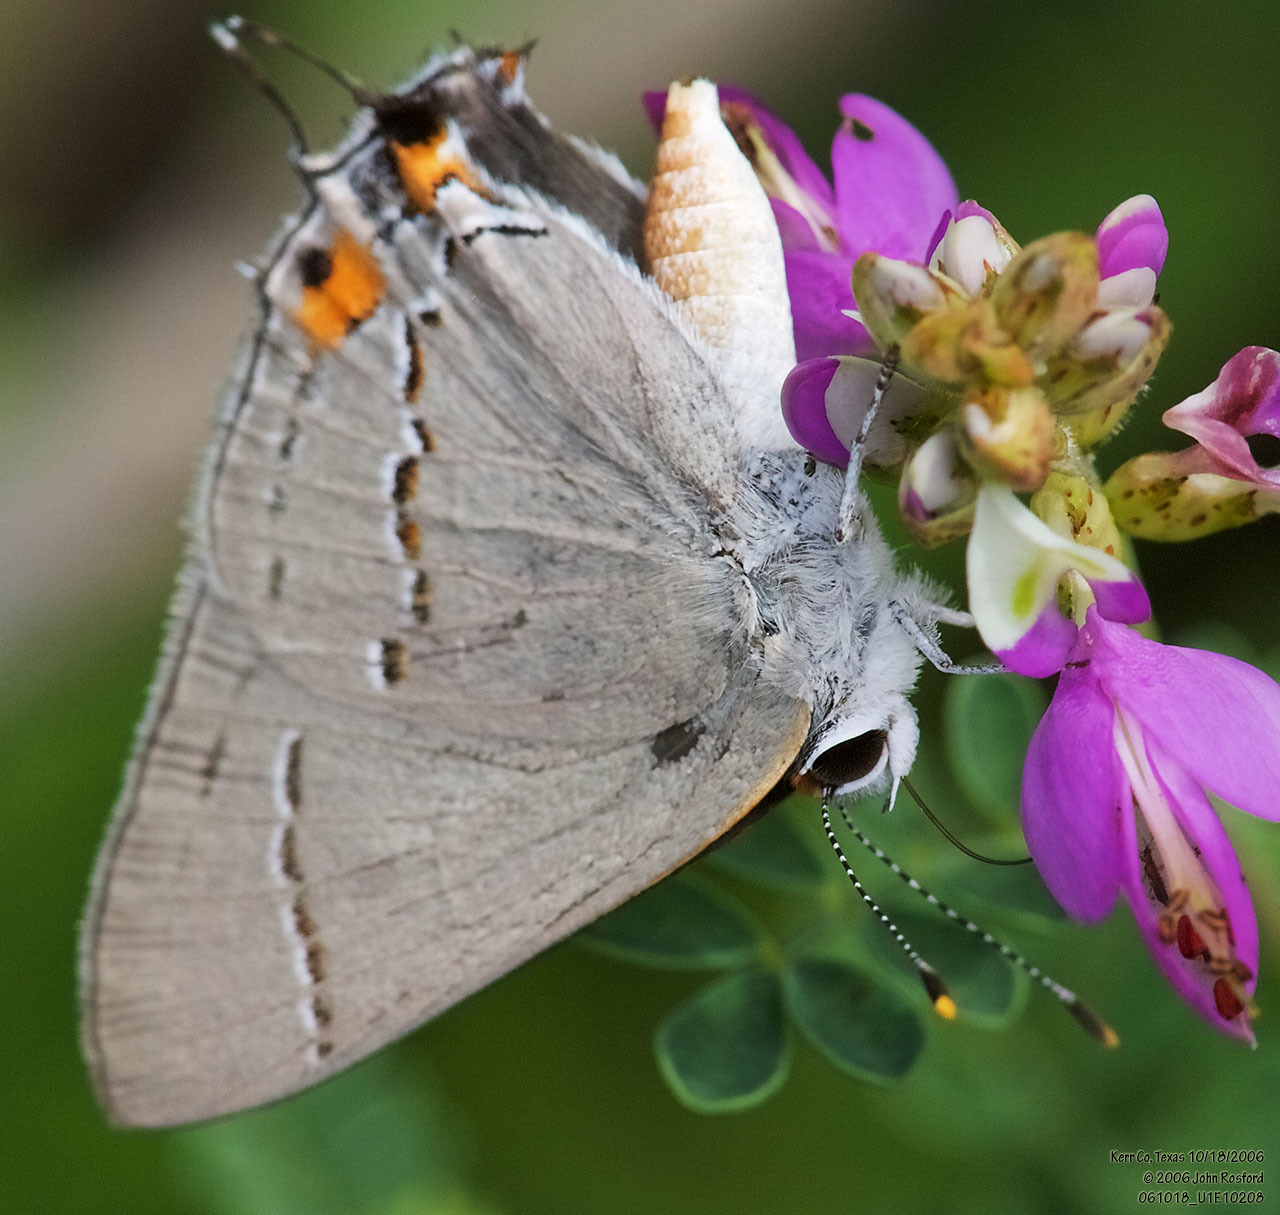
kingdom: Animalia
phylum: Arthropoda
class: Insecta
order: Lepidoptera
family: Lycaenidae
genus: Strymon
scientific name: Strymon melinus
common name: Gray hairstreak
